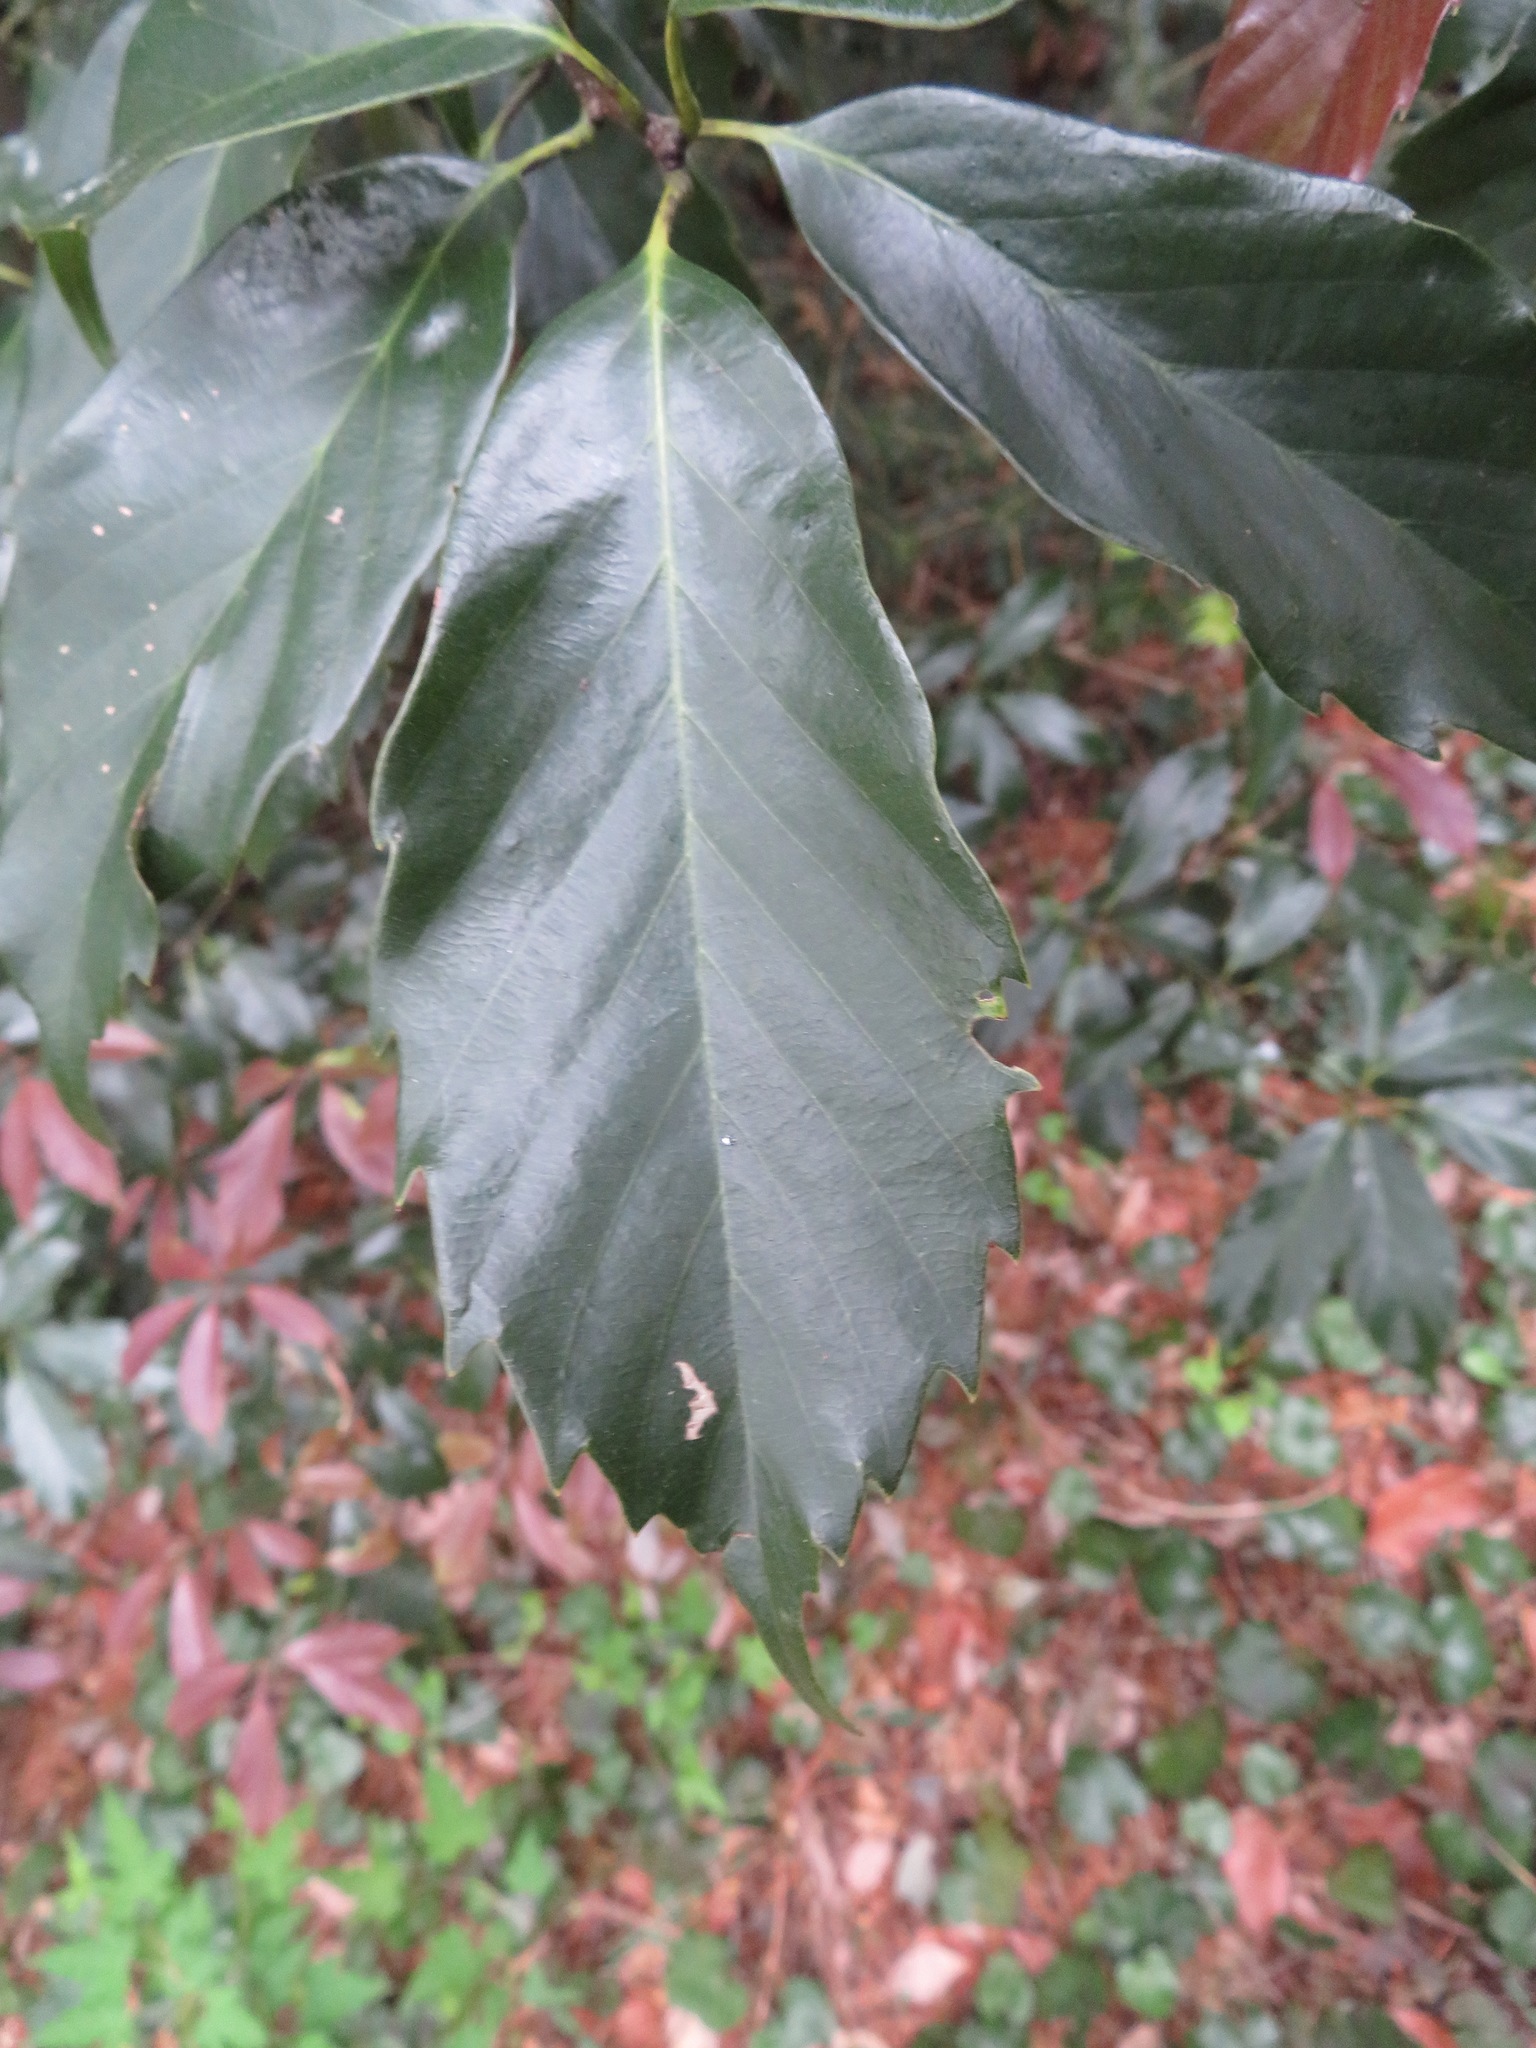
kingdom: Plantae
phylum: Tracheophyta
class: Magnoliopsida
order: Fagales
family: Fagaceae
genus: Quercus
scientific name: Quercus glauca
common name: Ring-cup oak
